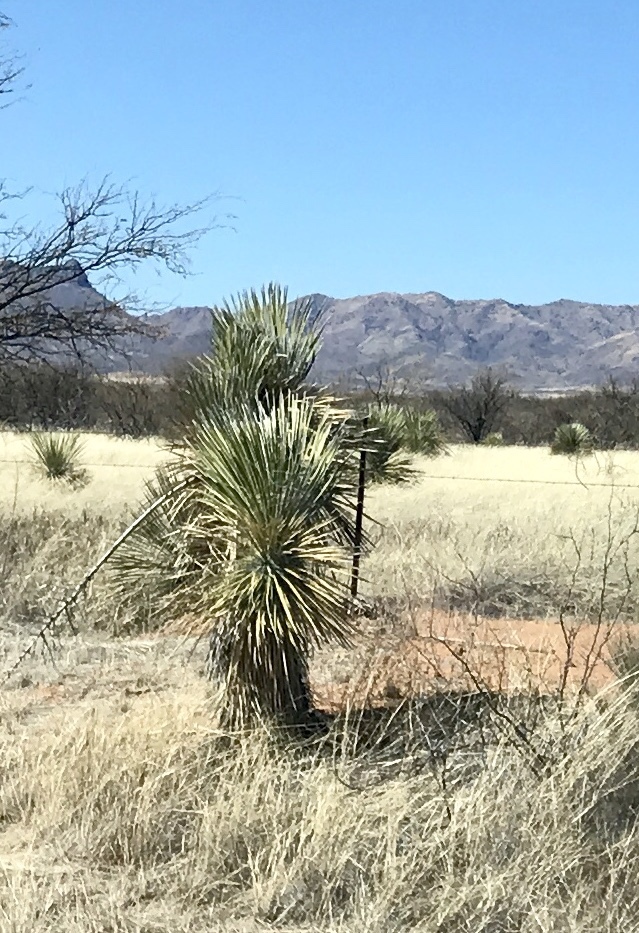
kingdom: Plantae
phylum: Tracheophyta
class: Liliopsida
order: Asparagales
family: Asparagaceae
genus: Yucca
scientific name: Yucca elata
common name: Palmella
